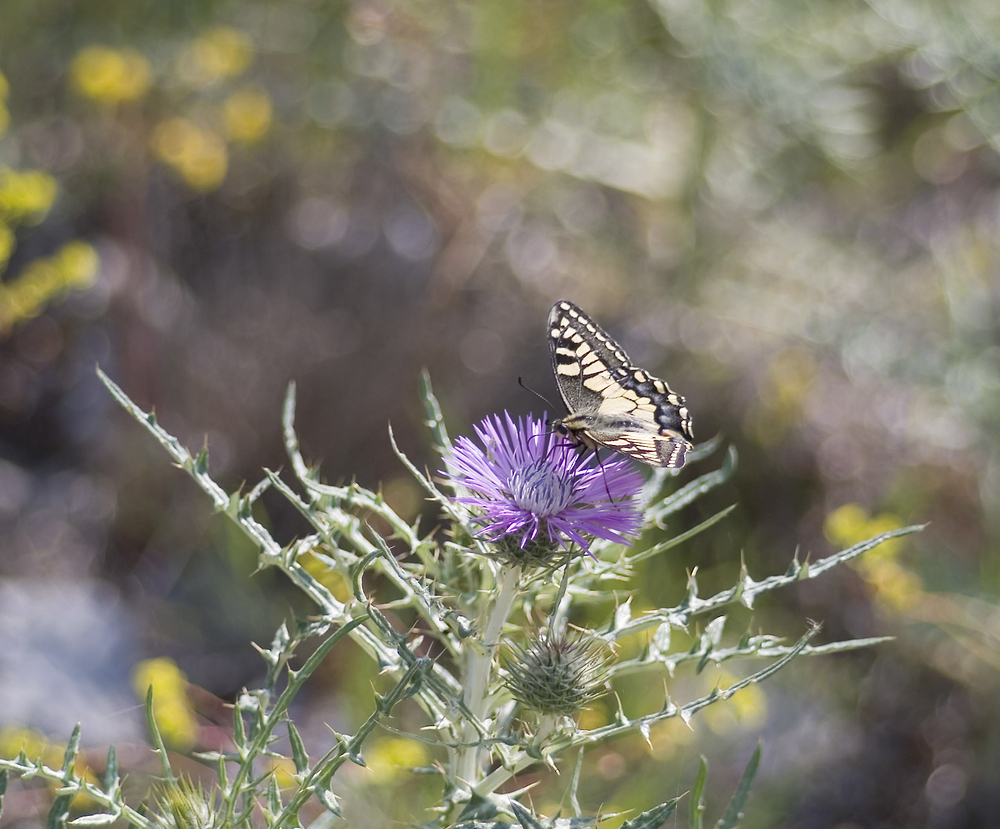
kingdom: Animalia
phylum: Arthropoda
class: Insecta
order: Lepidoptera
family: Papilionidae
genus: Papilio
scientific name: Papilio machaon
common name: Swallowtail
